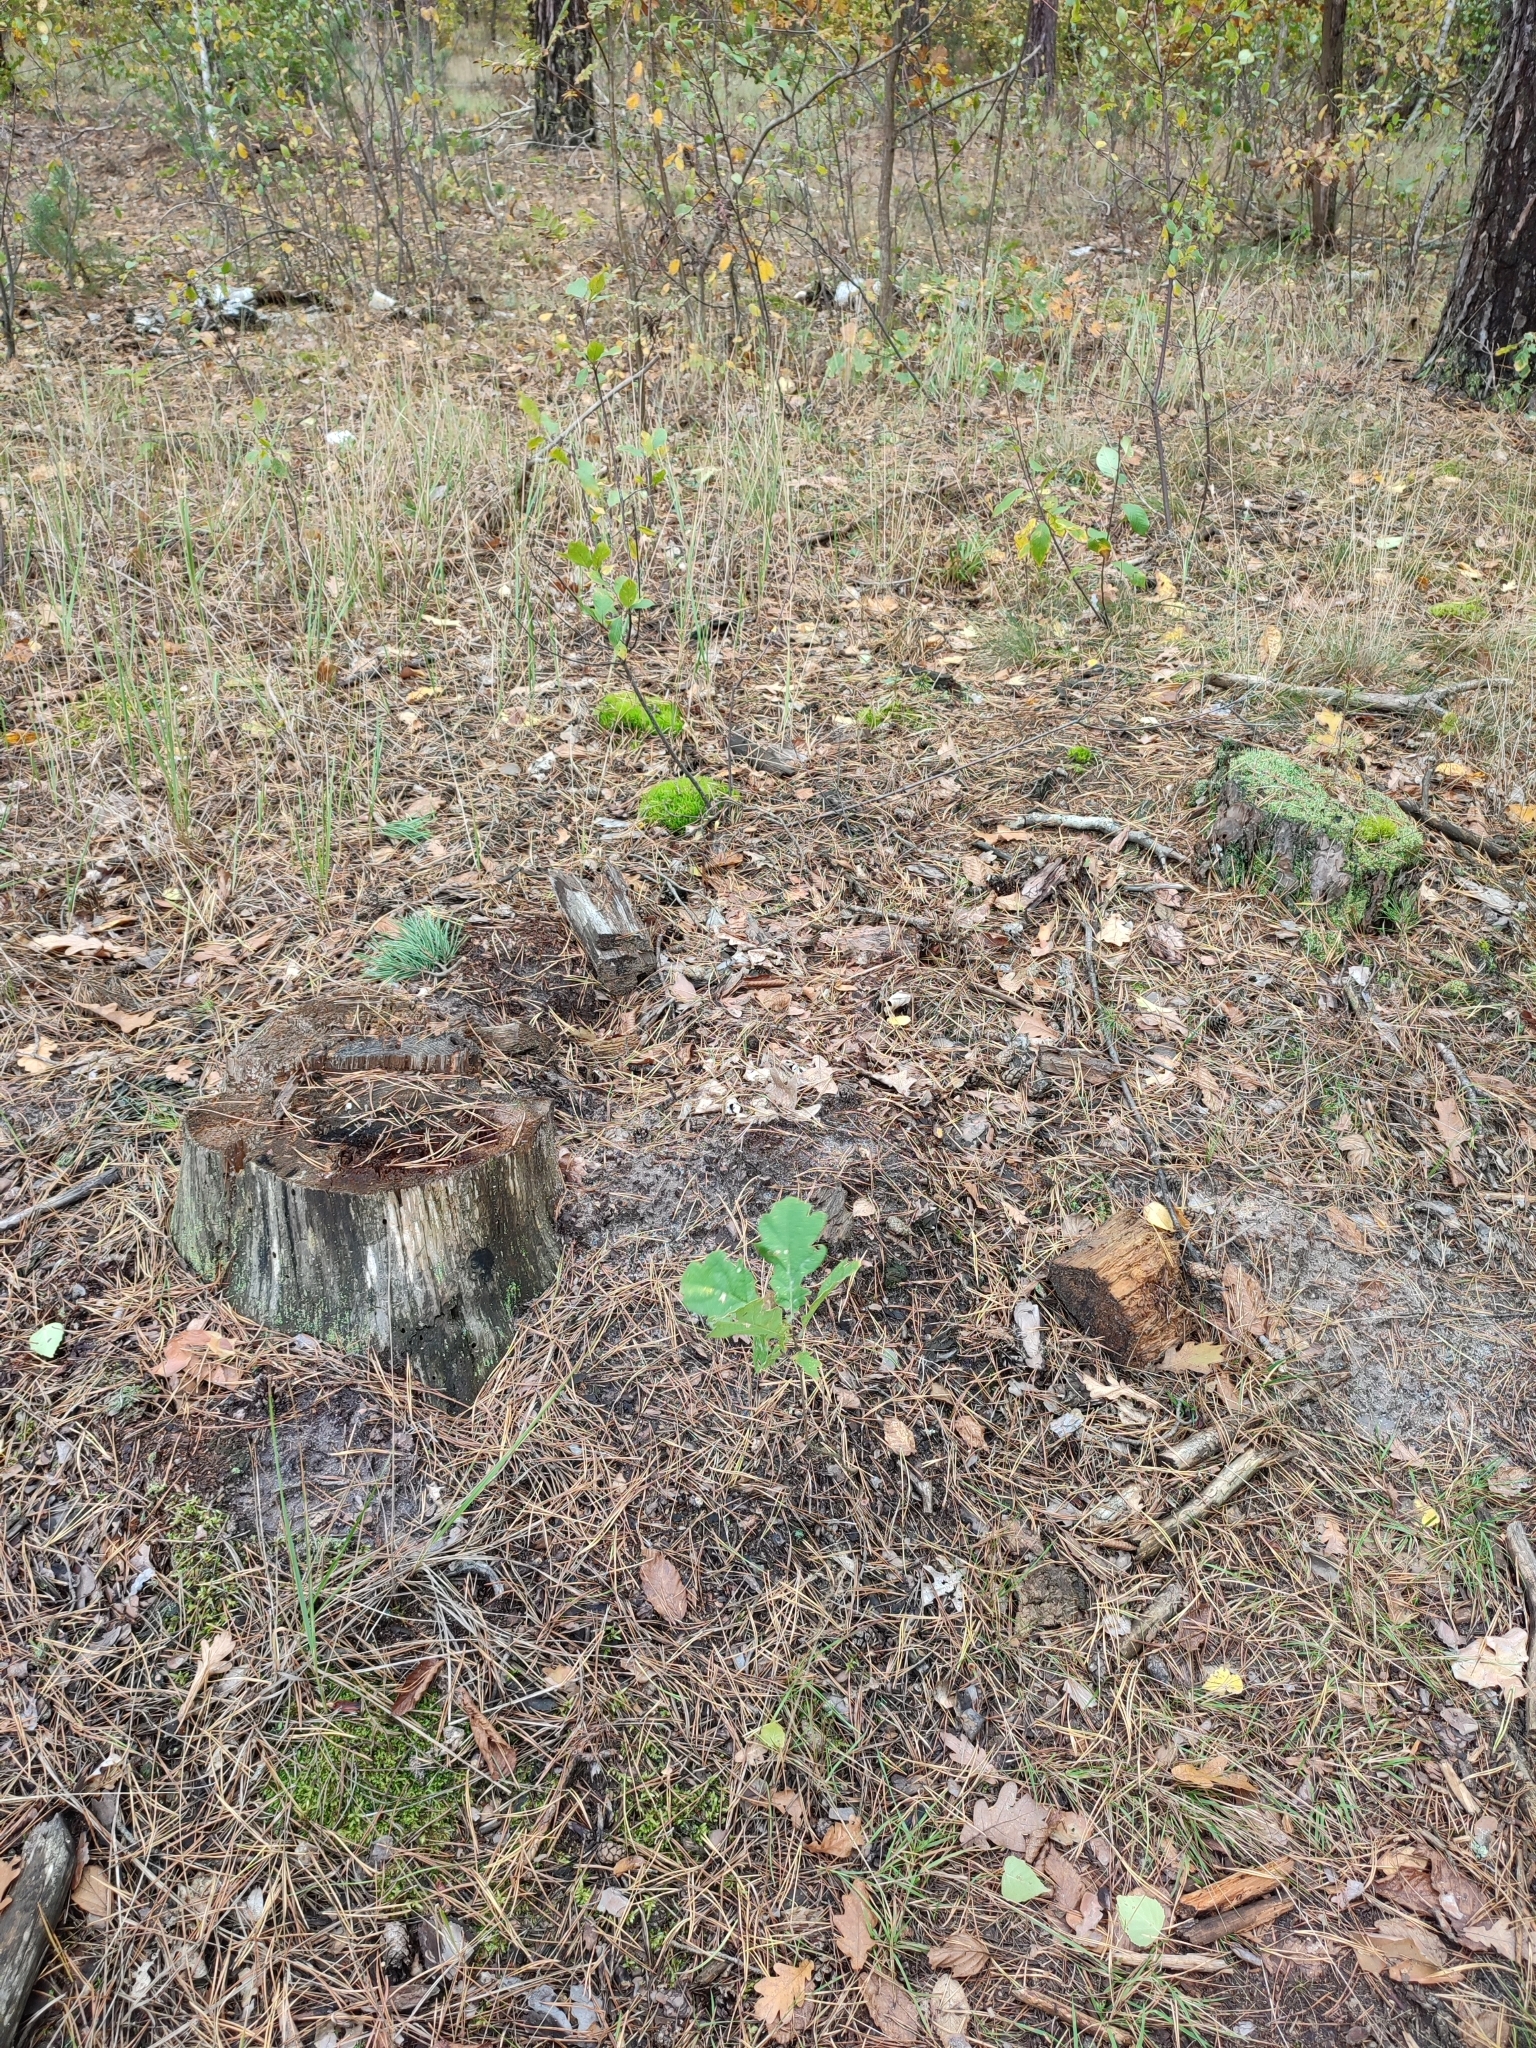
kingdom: Plantae
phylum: Tracheophyta
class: Magnoliopsida
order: Fagales
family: Fagaceae
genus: Quercus
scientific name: Quercus robur
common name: Pedunculate oak
